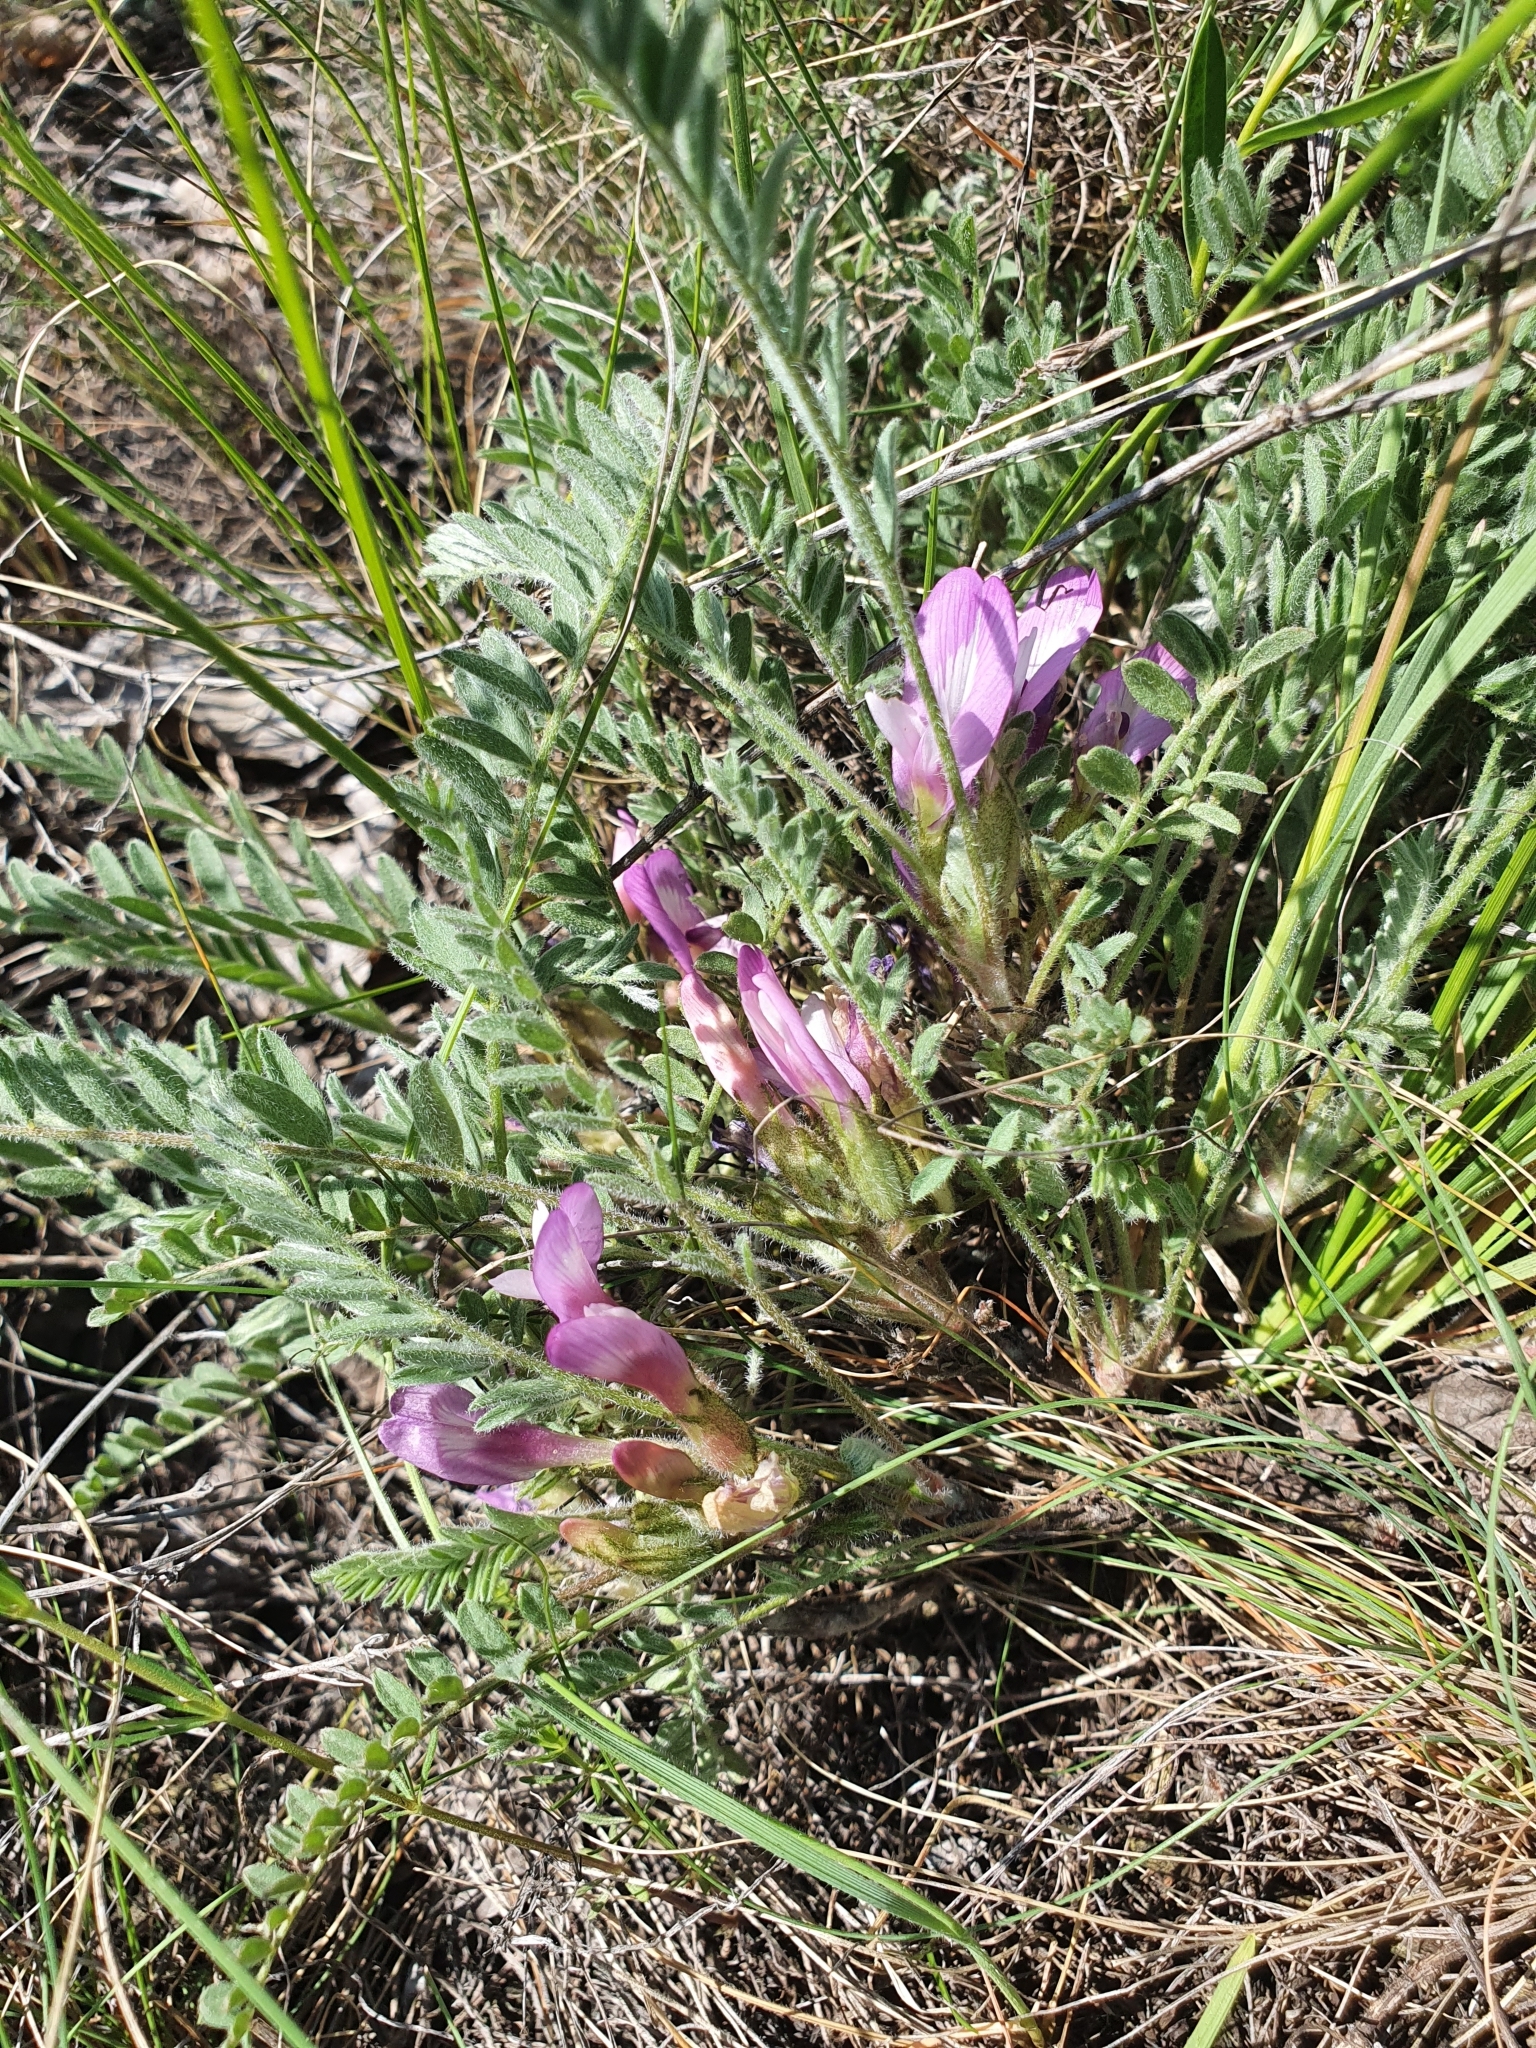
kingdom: Plantae
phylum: Tracheophyta
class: Magnoliopsida
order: Fabales
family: Fabaceae
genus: Astragalus
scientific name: Astragalus testiculatus
